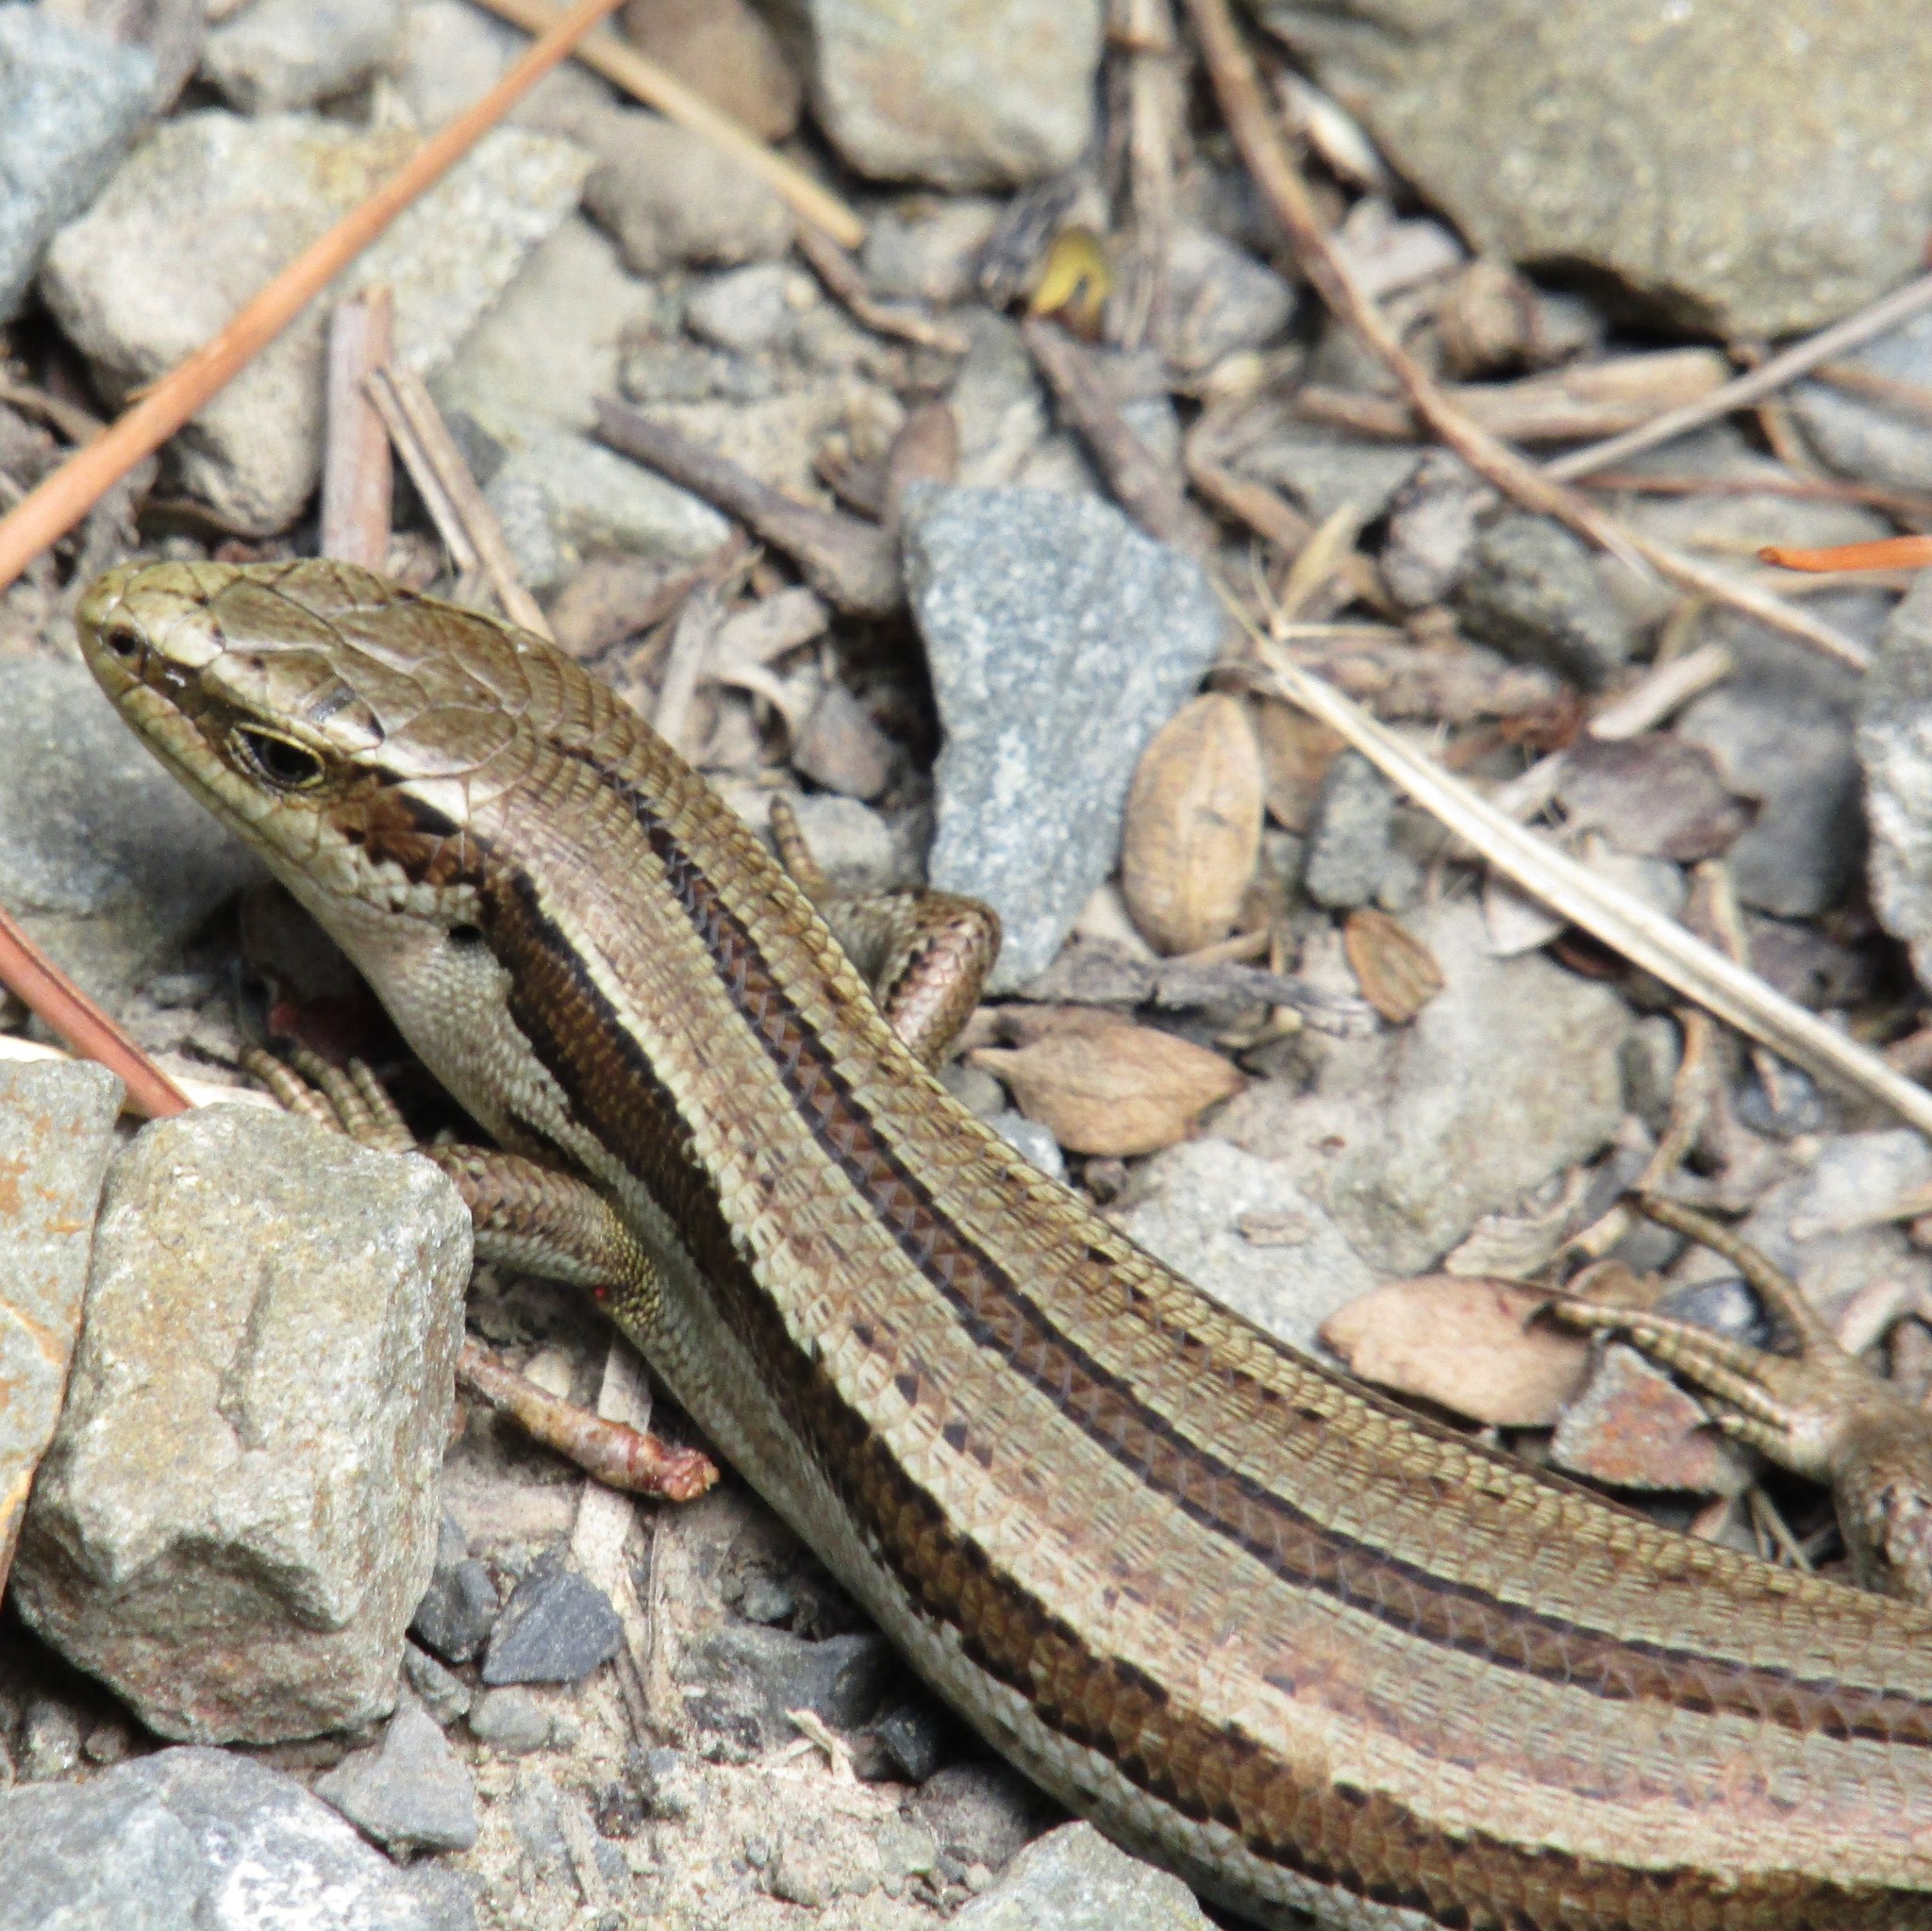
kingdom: Animalia
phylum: Chordata
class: Squamata
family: Scincidae
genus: Oligosoma
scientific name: Oligosoma polychroma
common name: Common new zealand skink
